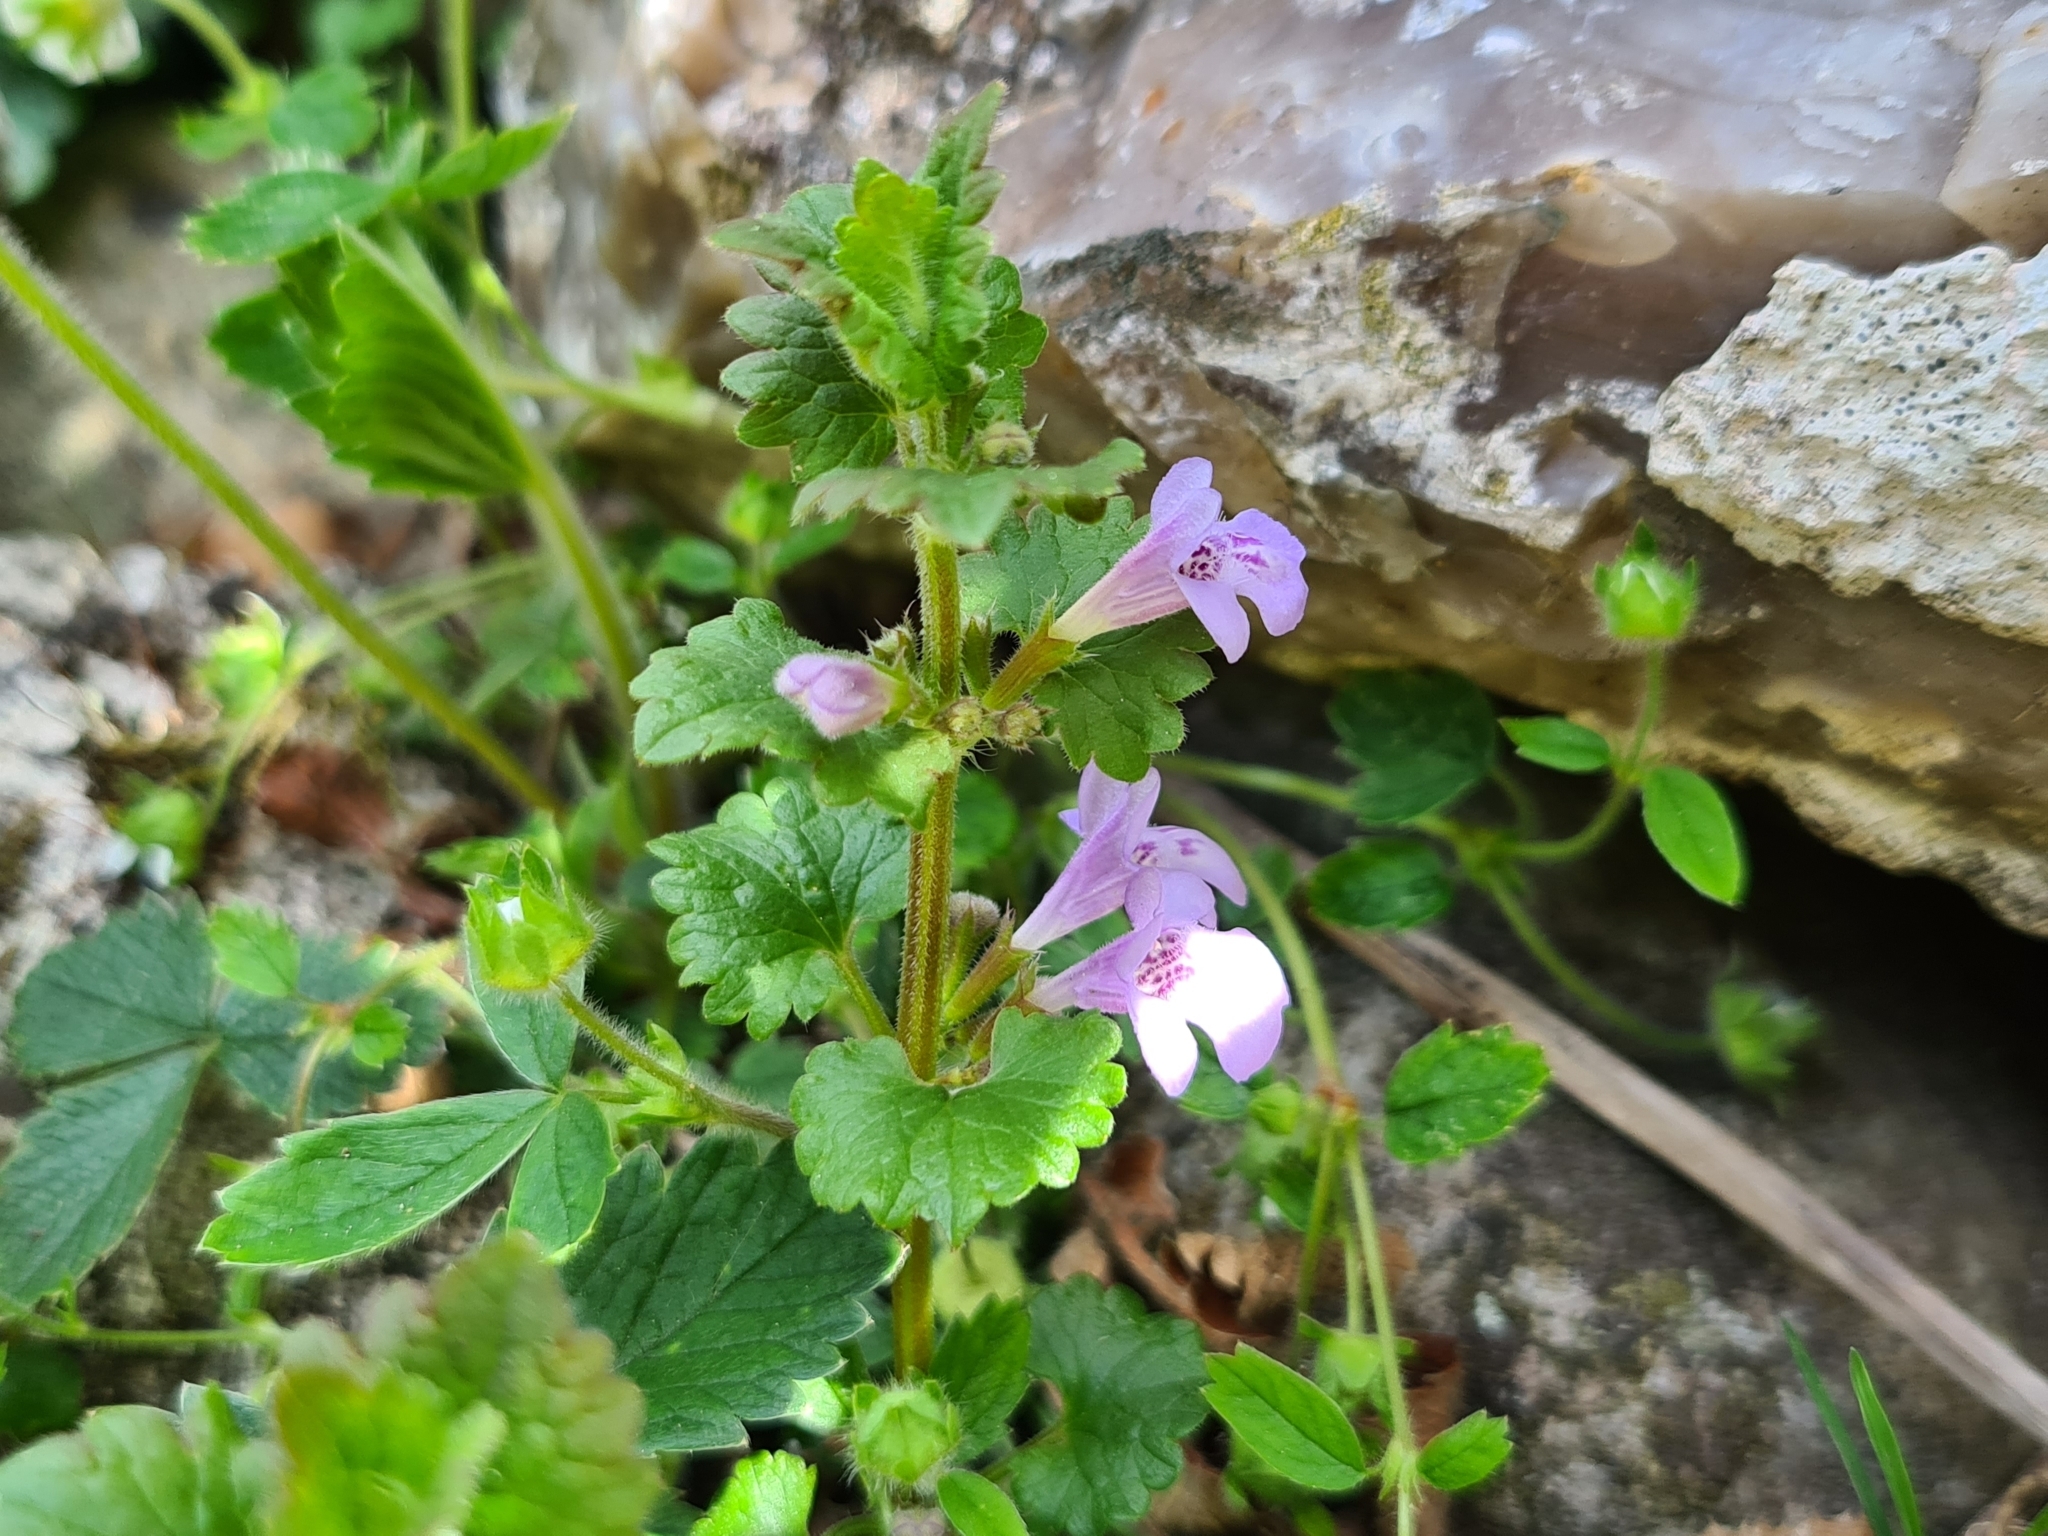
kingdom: Plantae
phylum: Tracheophyta
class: Magnoliopsida
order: Lamiales
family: Lamiaceae
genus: Glechoma
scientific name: Glechoma hederacea
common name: Ground ivy
